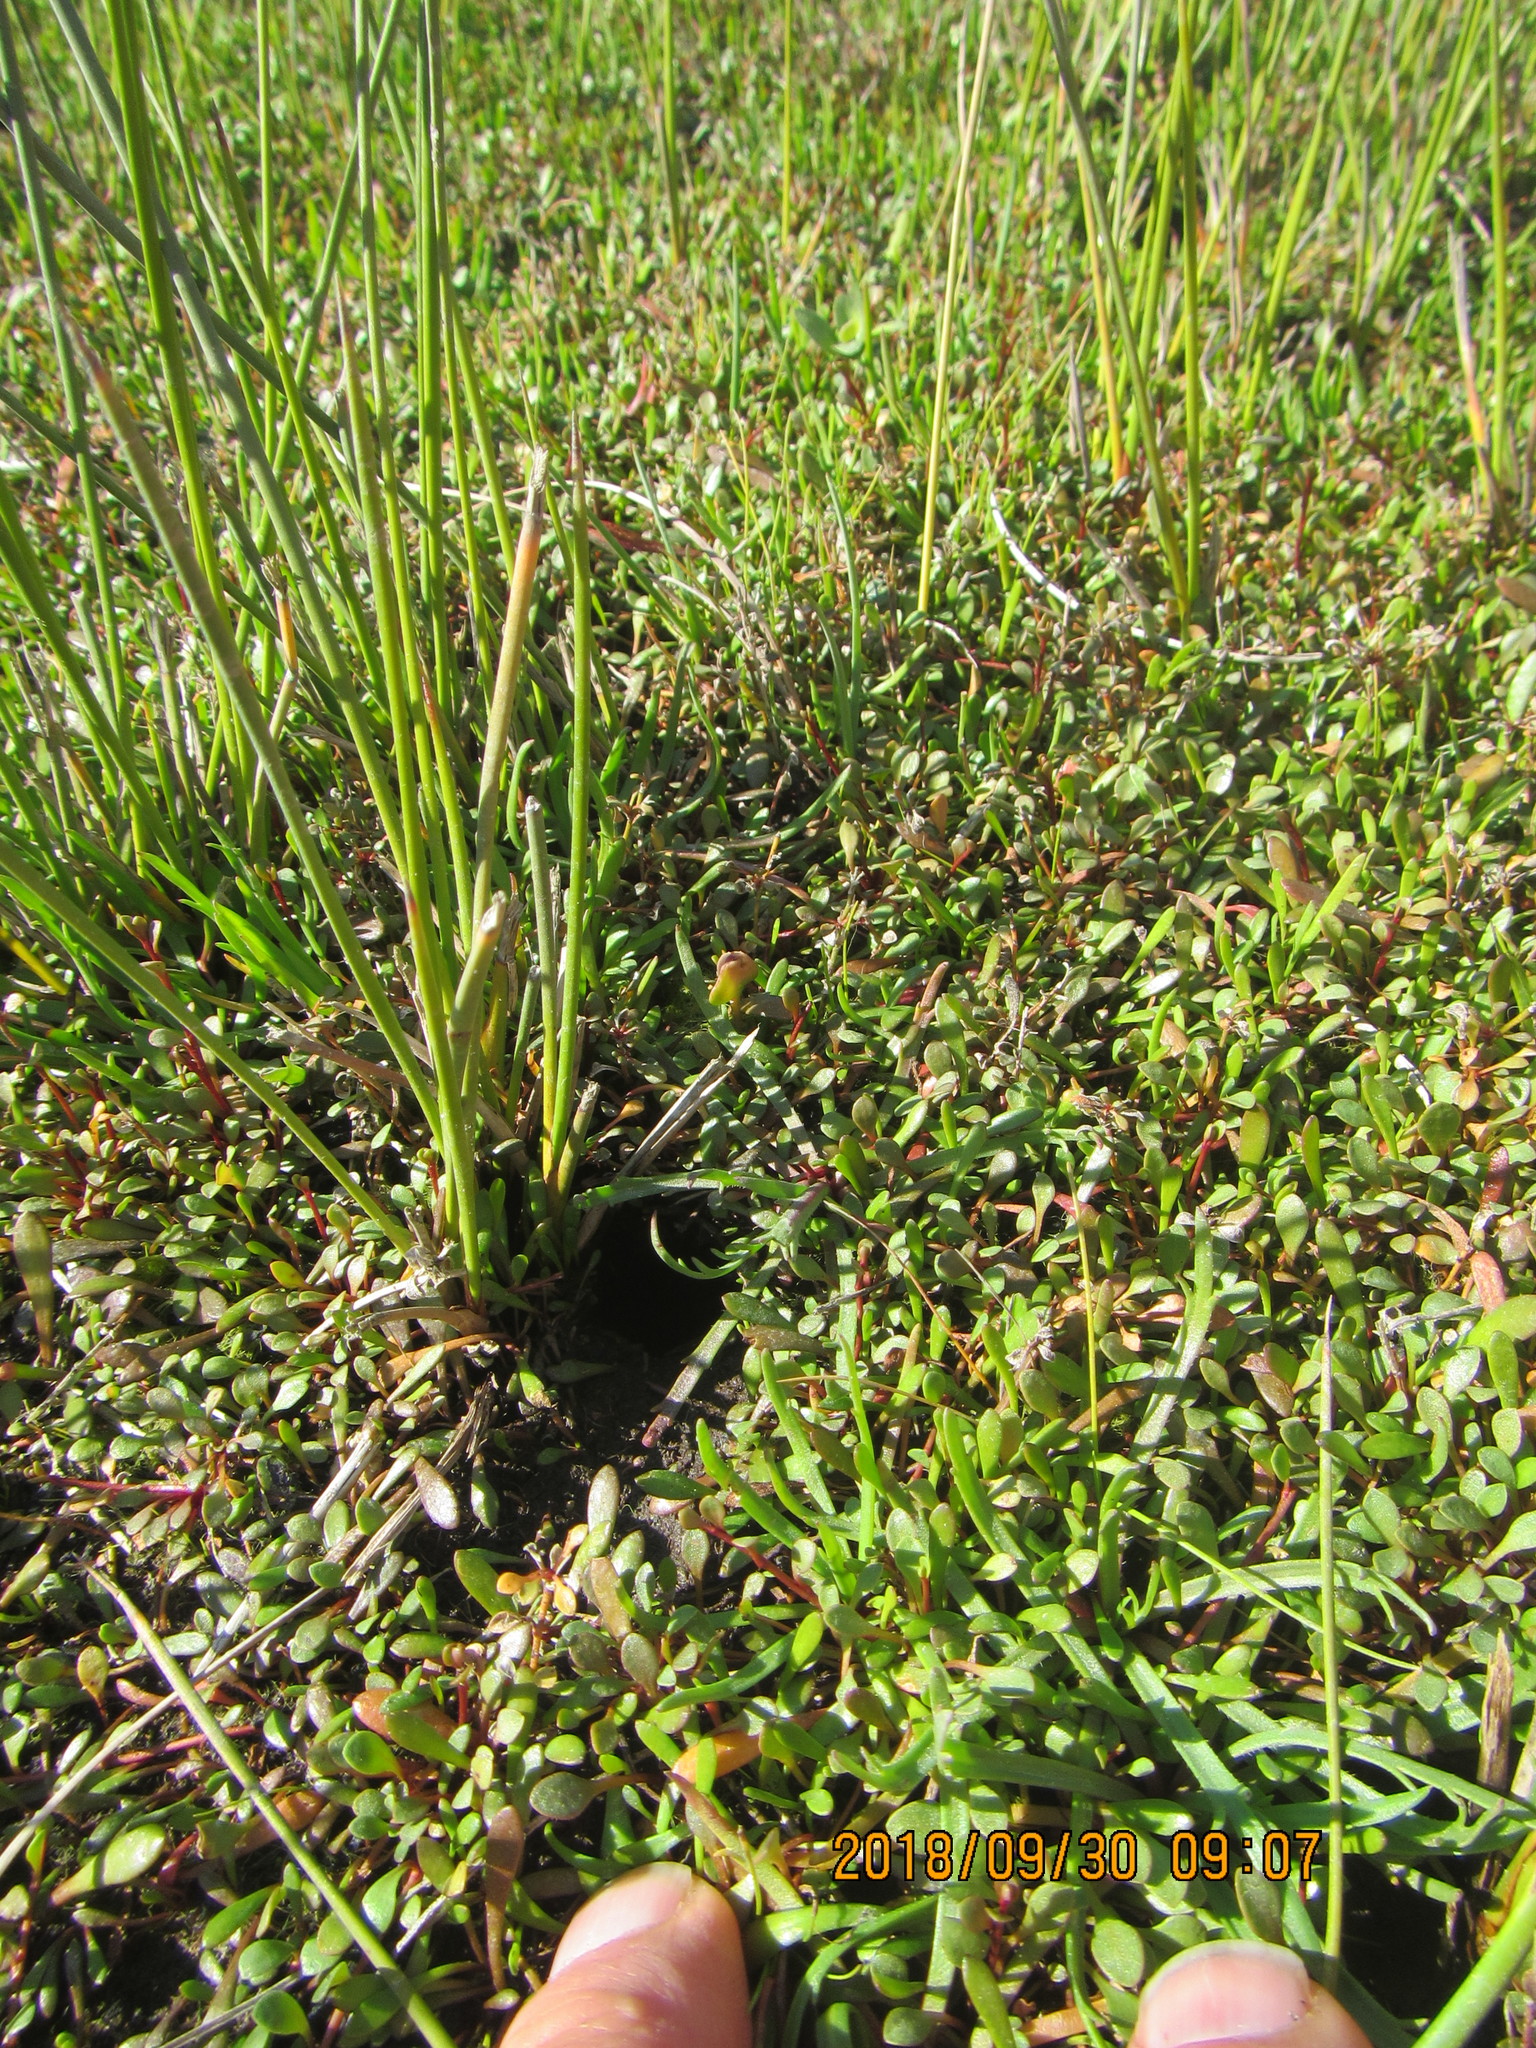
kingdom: Plantae
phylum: Tracheophyta
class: Magnoliopsida
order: Asterales
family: Goodeniaceae
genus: Goodenia
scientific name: Goodenia radicans
